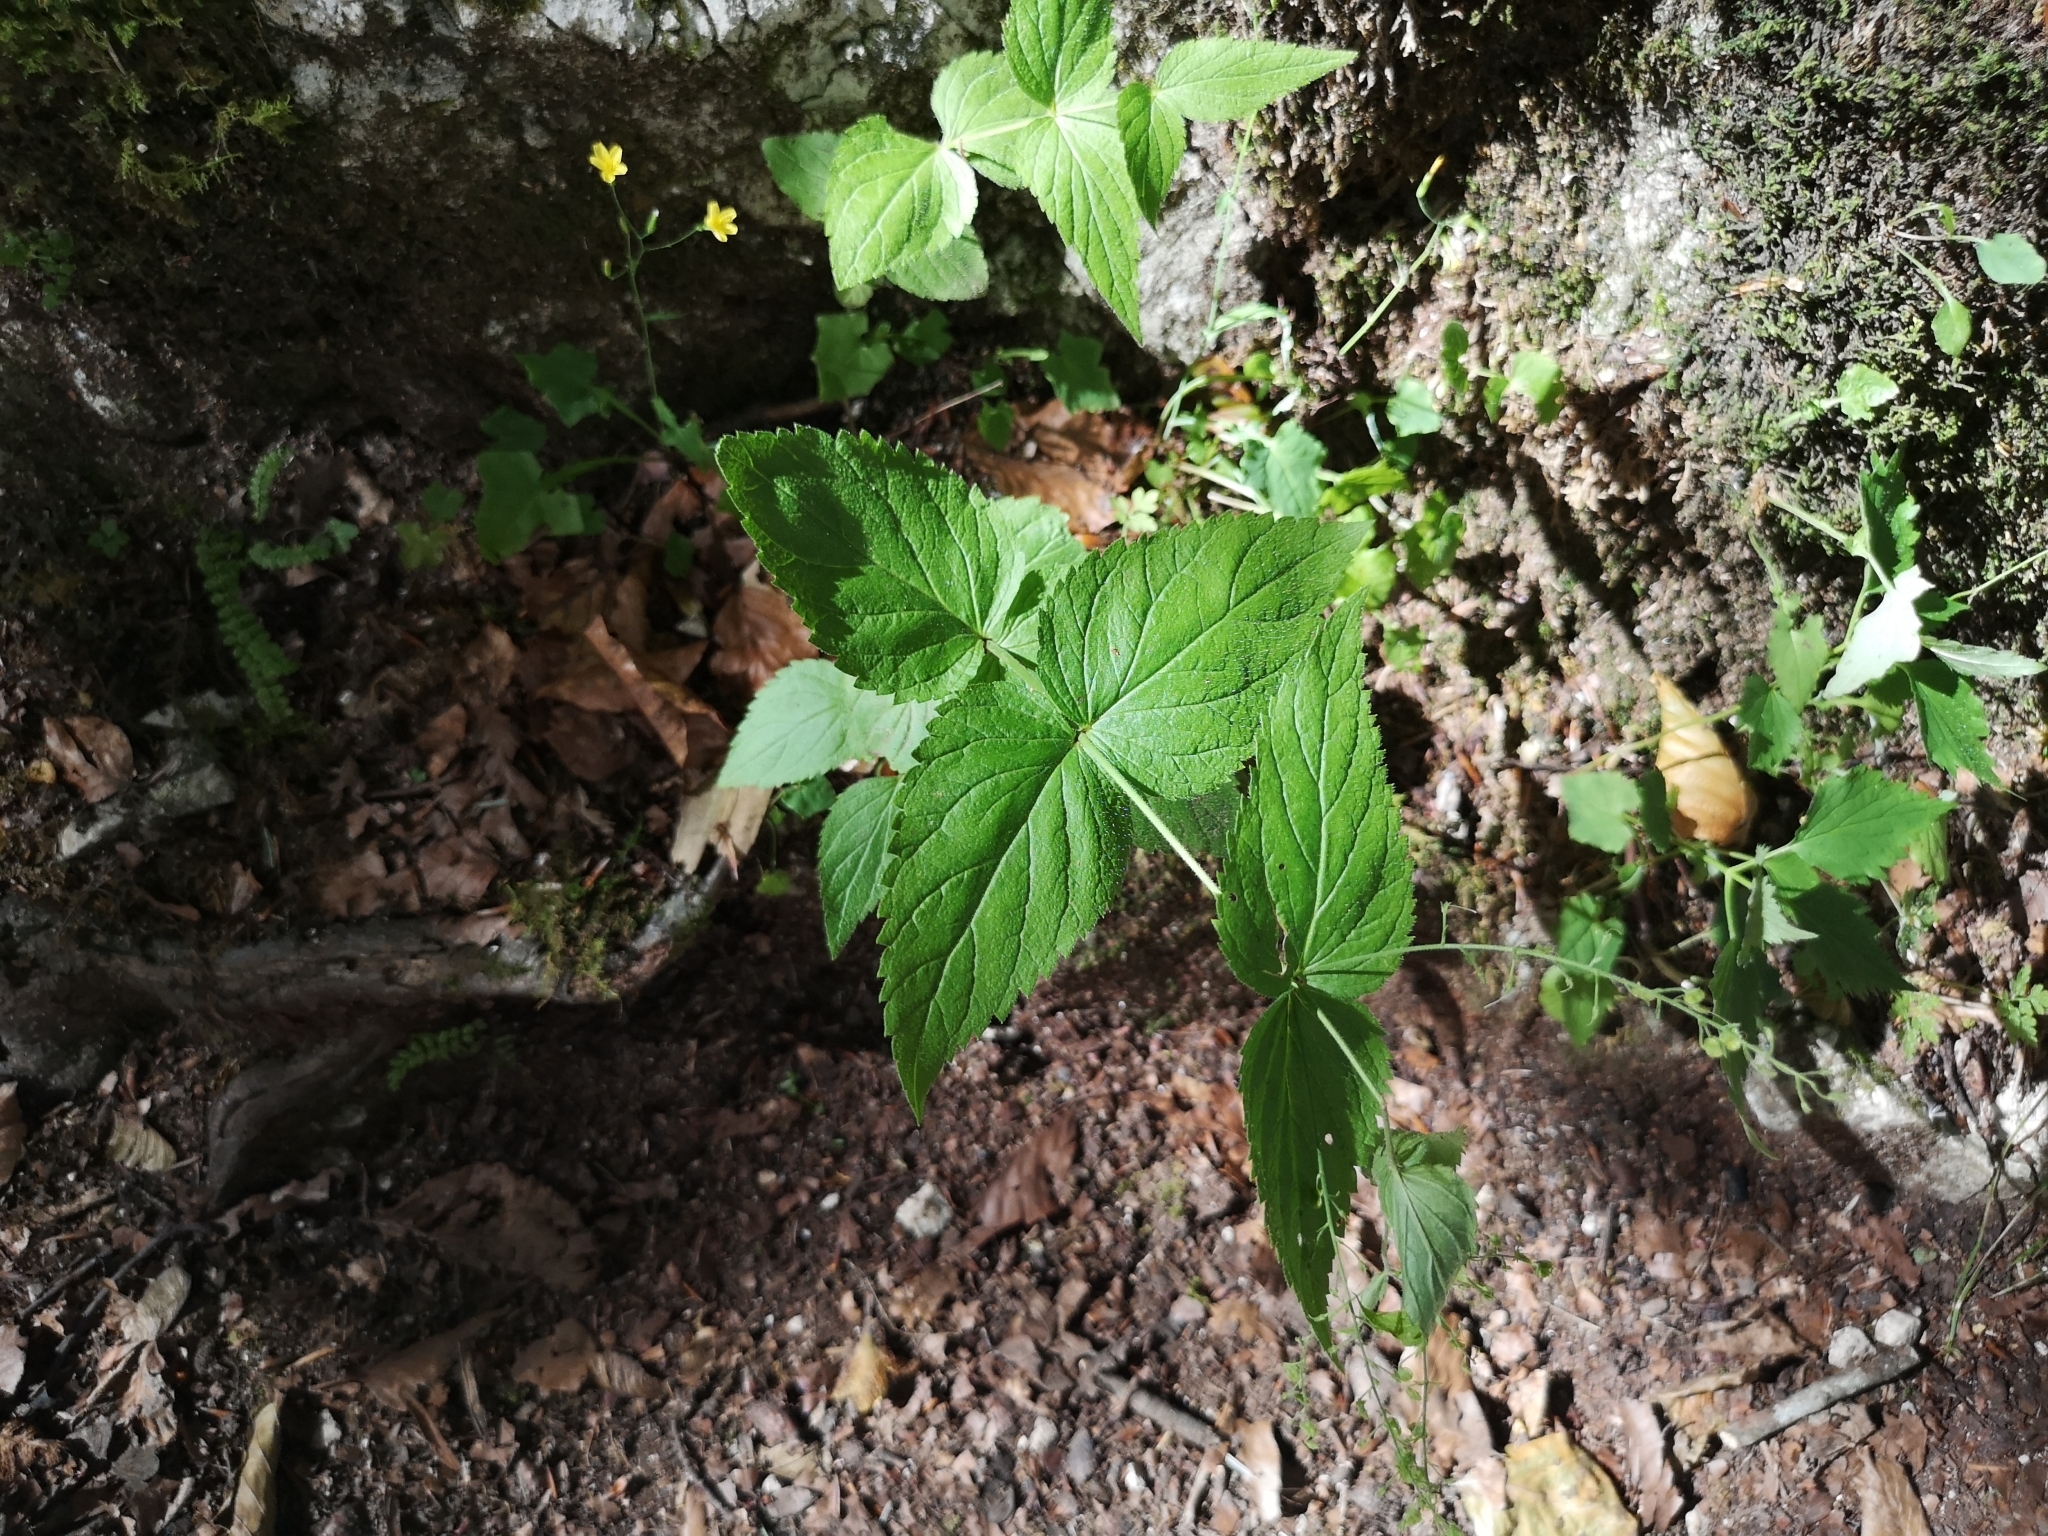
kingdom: Plantae
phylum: Tracheophyta
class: Magnoliopsida
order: Lamiales
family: Plantaginaceae
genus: Veronica
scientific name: Veronica urticifolia
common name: Nettle-leaf speedwell
